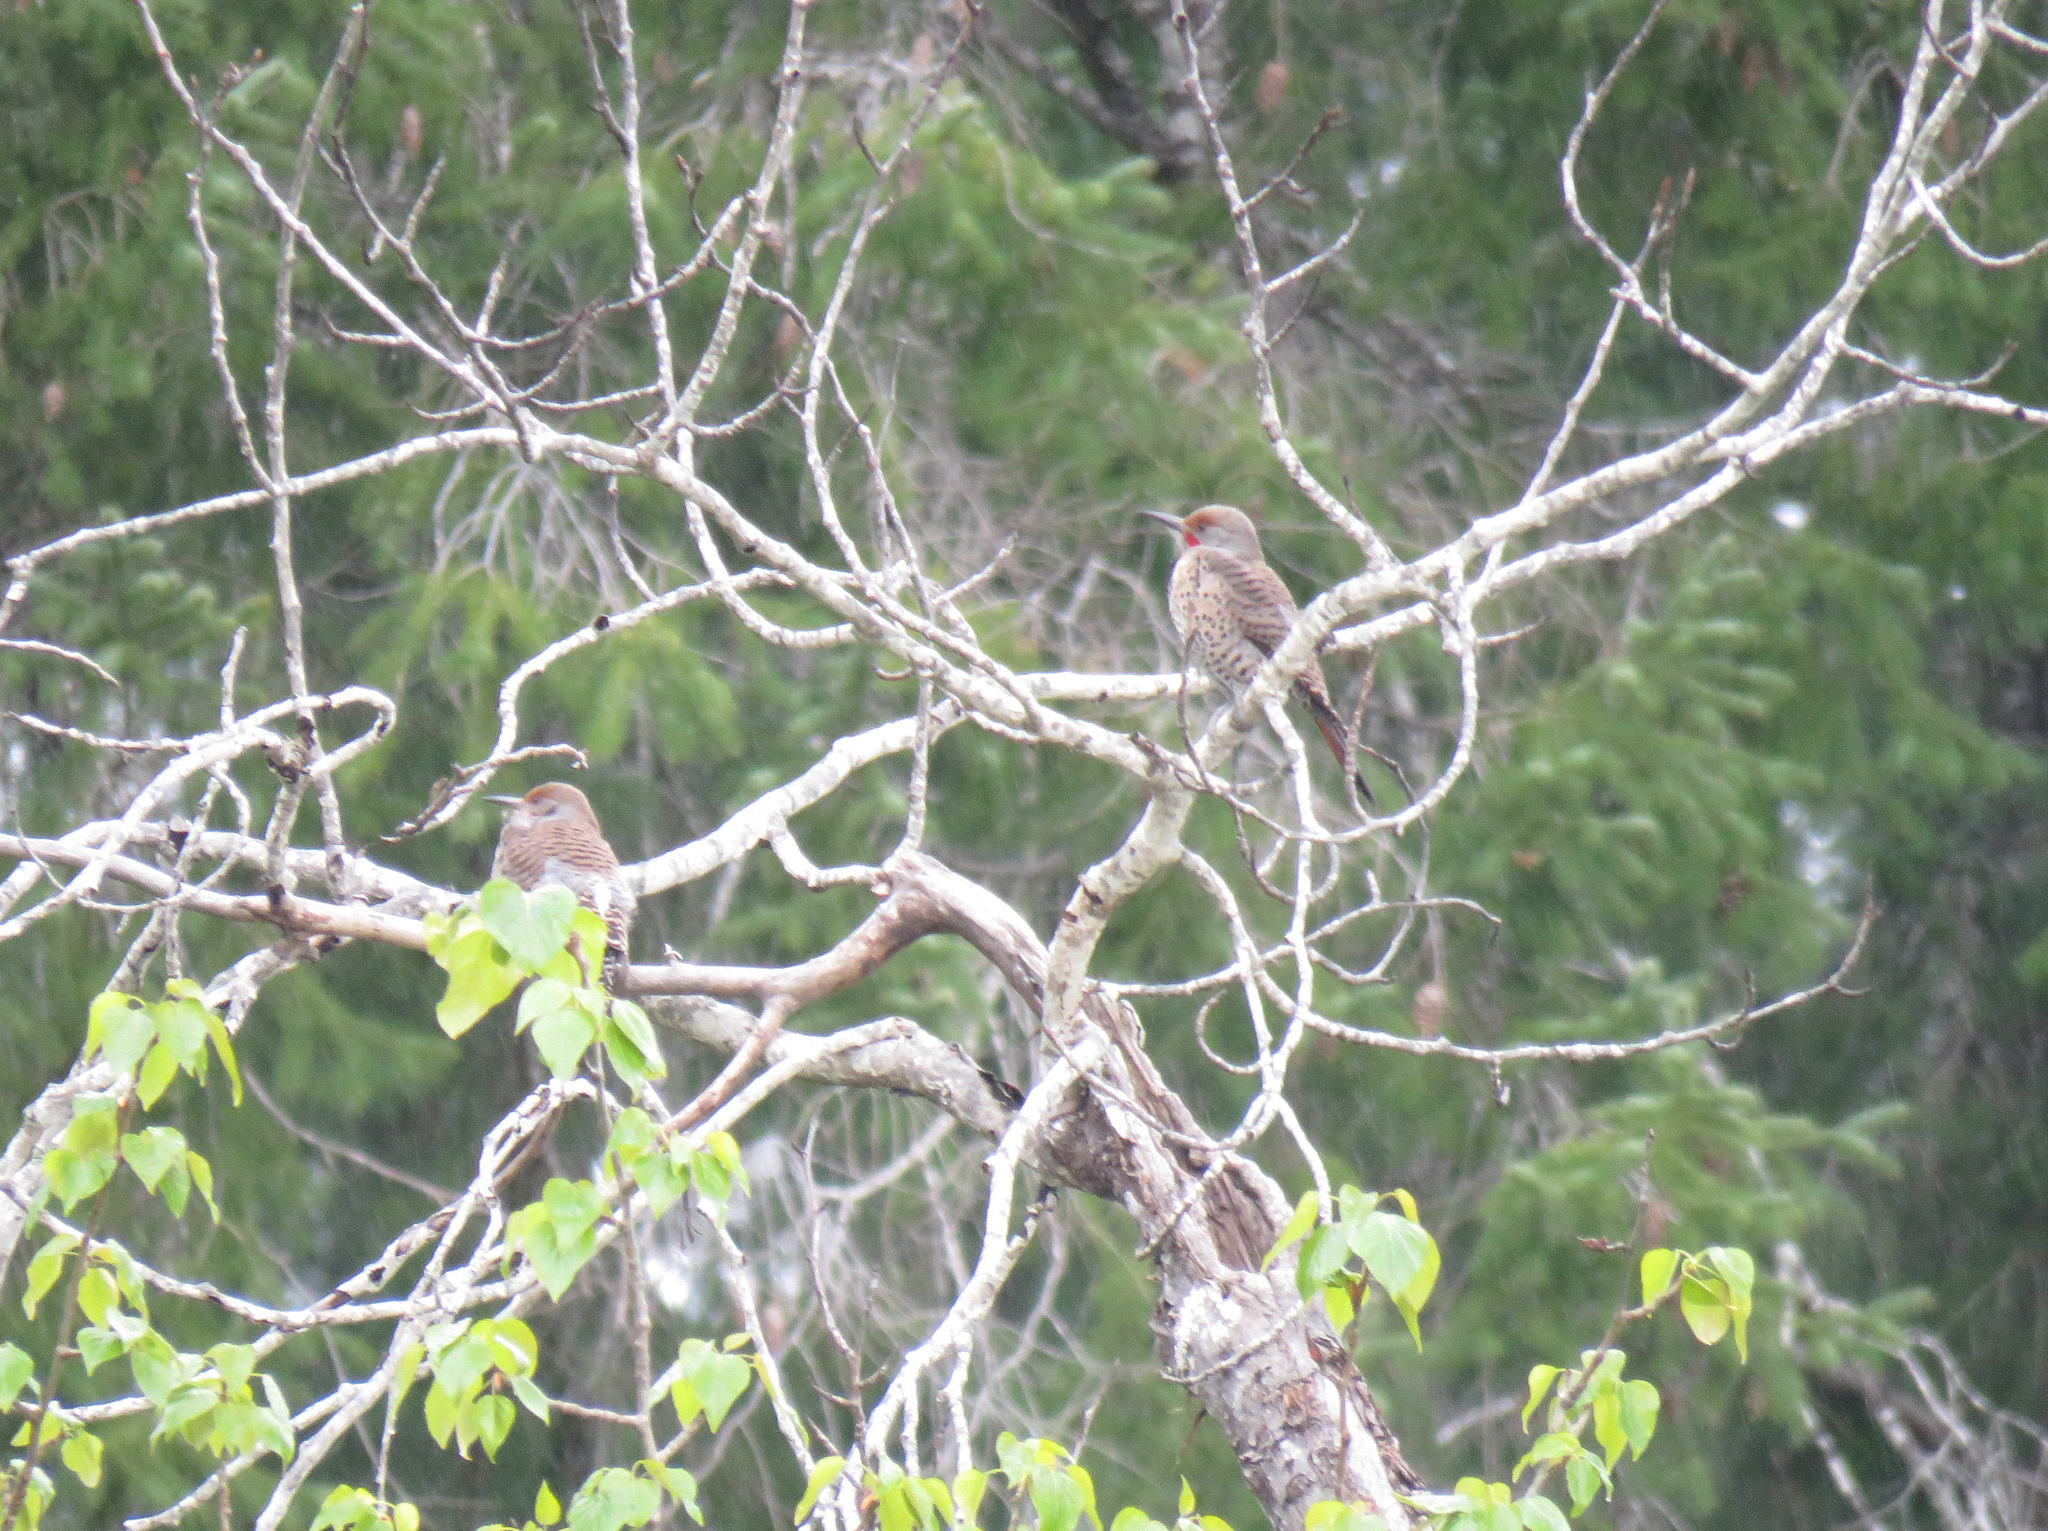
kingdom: Animalia
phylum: Chordata
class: Aves
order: Piciformes
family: Picidae
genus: Colaptes
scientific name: Colaptes auratus
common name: Northern flicker
